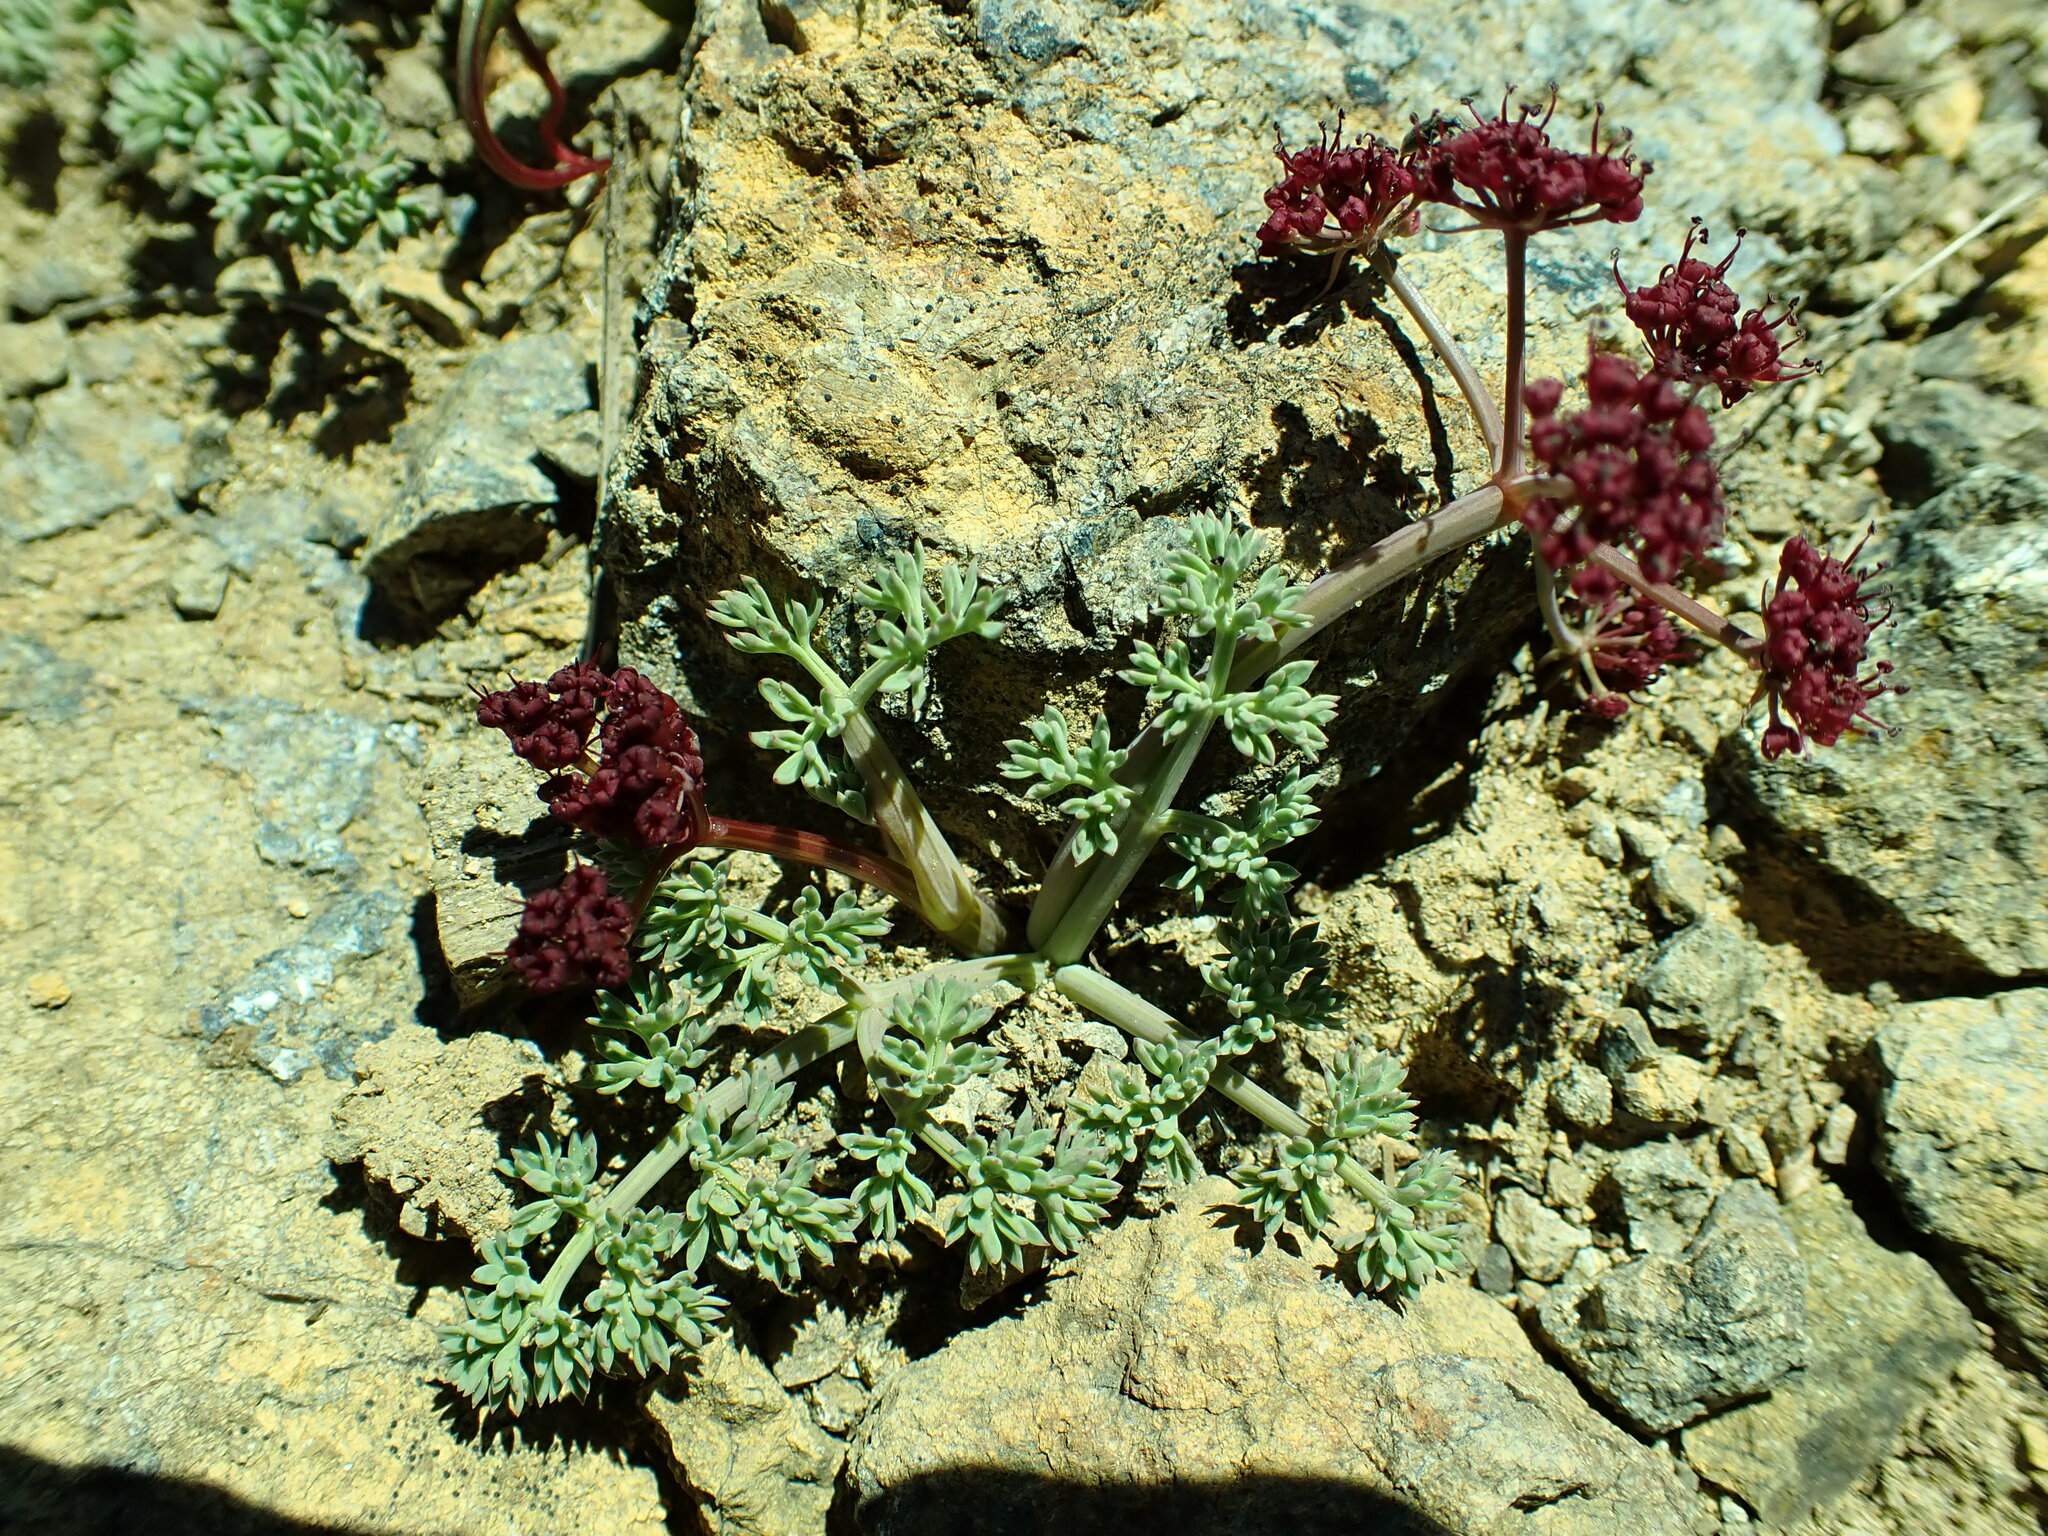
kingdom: Plantae
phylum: Tracheophyta
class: Magnoliopsida
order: Apiales
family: Apiaceae
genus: Lomatium
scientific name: Lomatium cuspidatum
